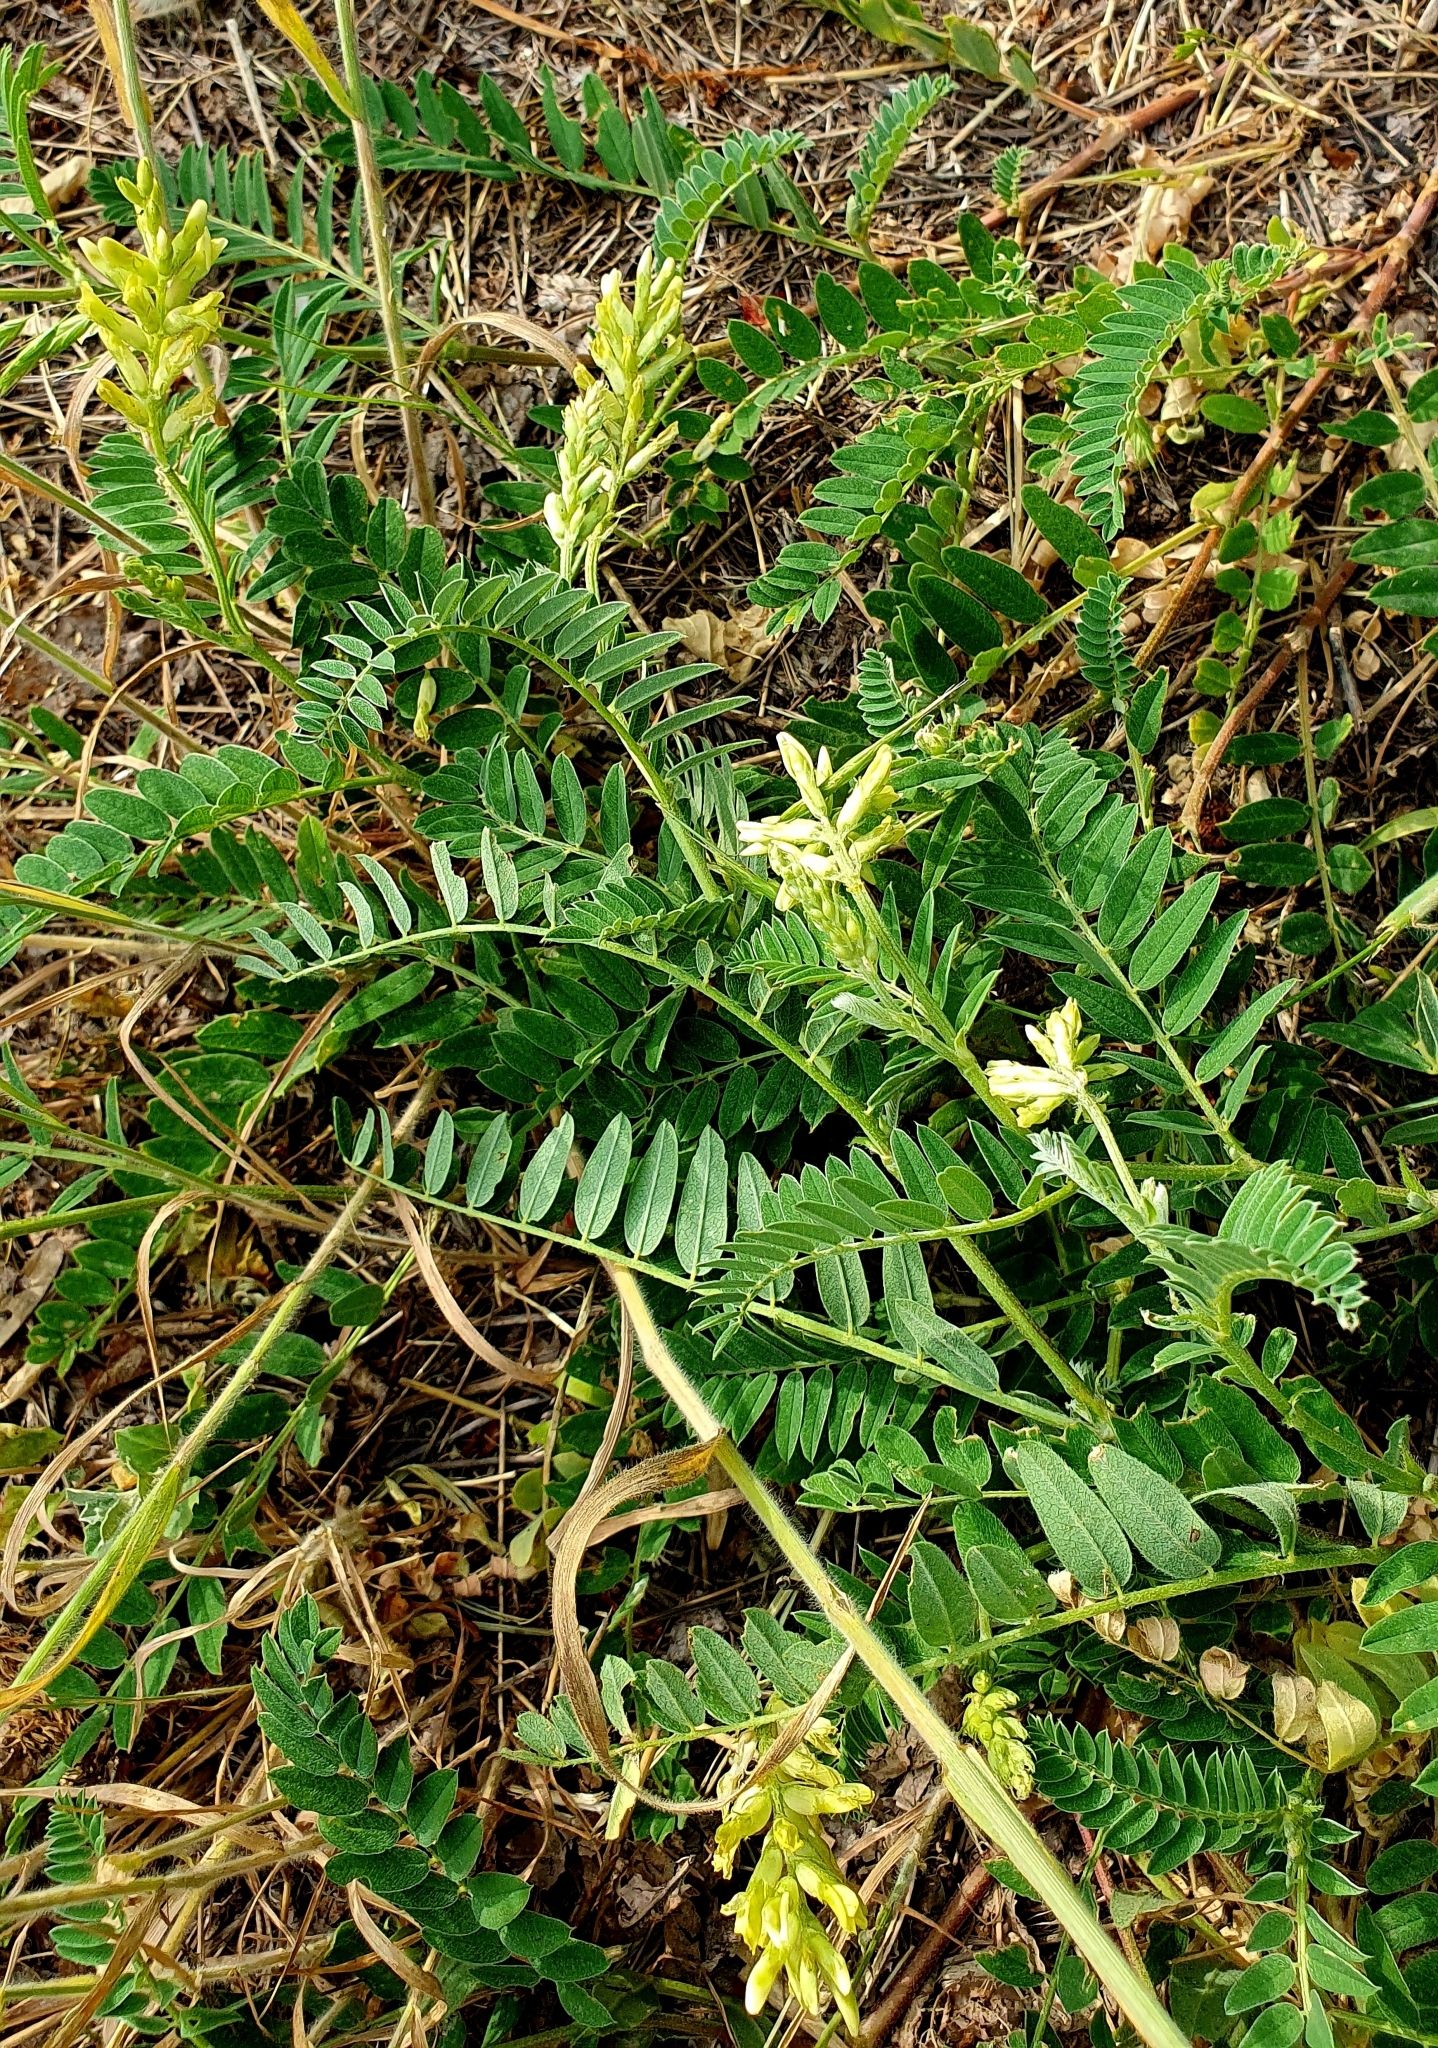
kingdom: Plantae
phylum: Tracheophyta
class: Magnoliopsida
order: Fabales
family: Fabaceae
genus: Astragalus
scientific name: Astragalus cicer
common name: Chick-pea milk-vetch
